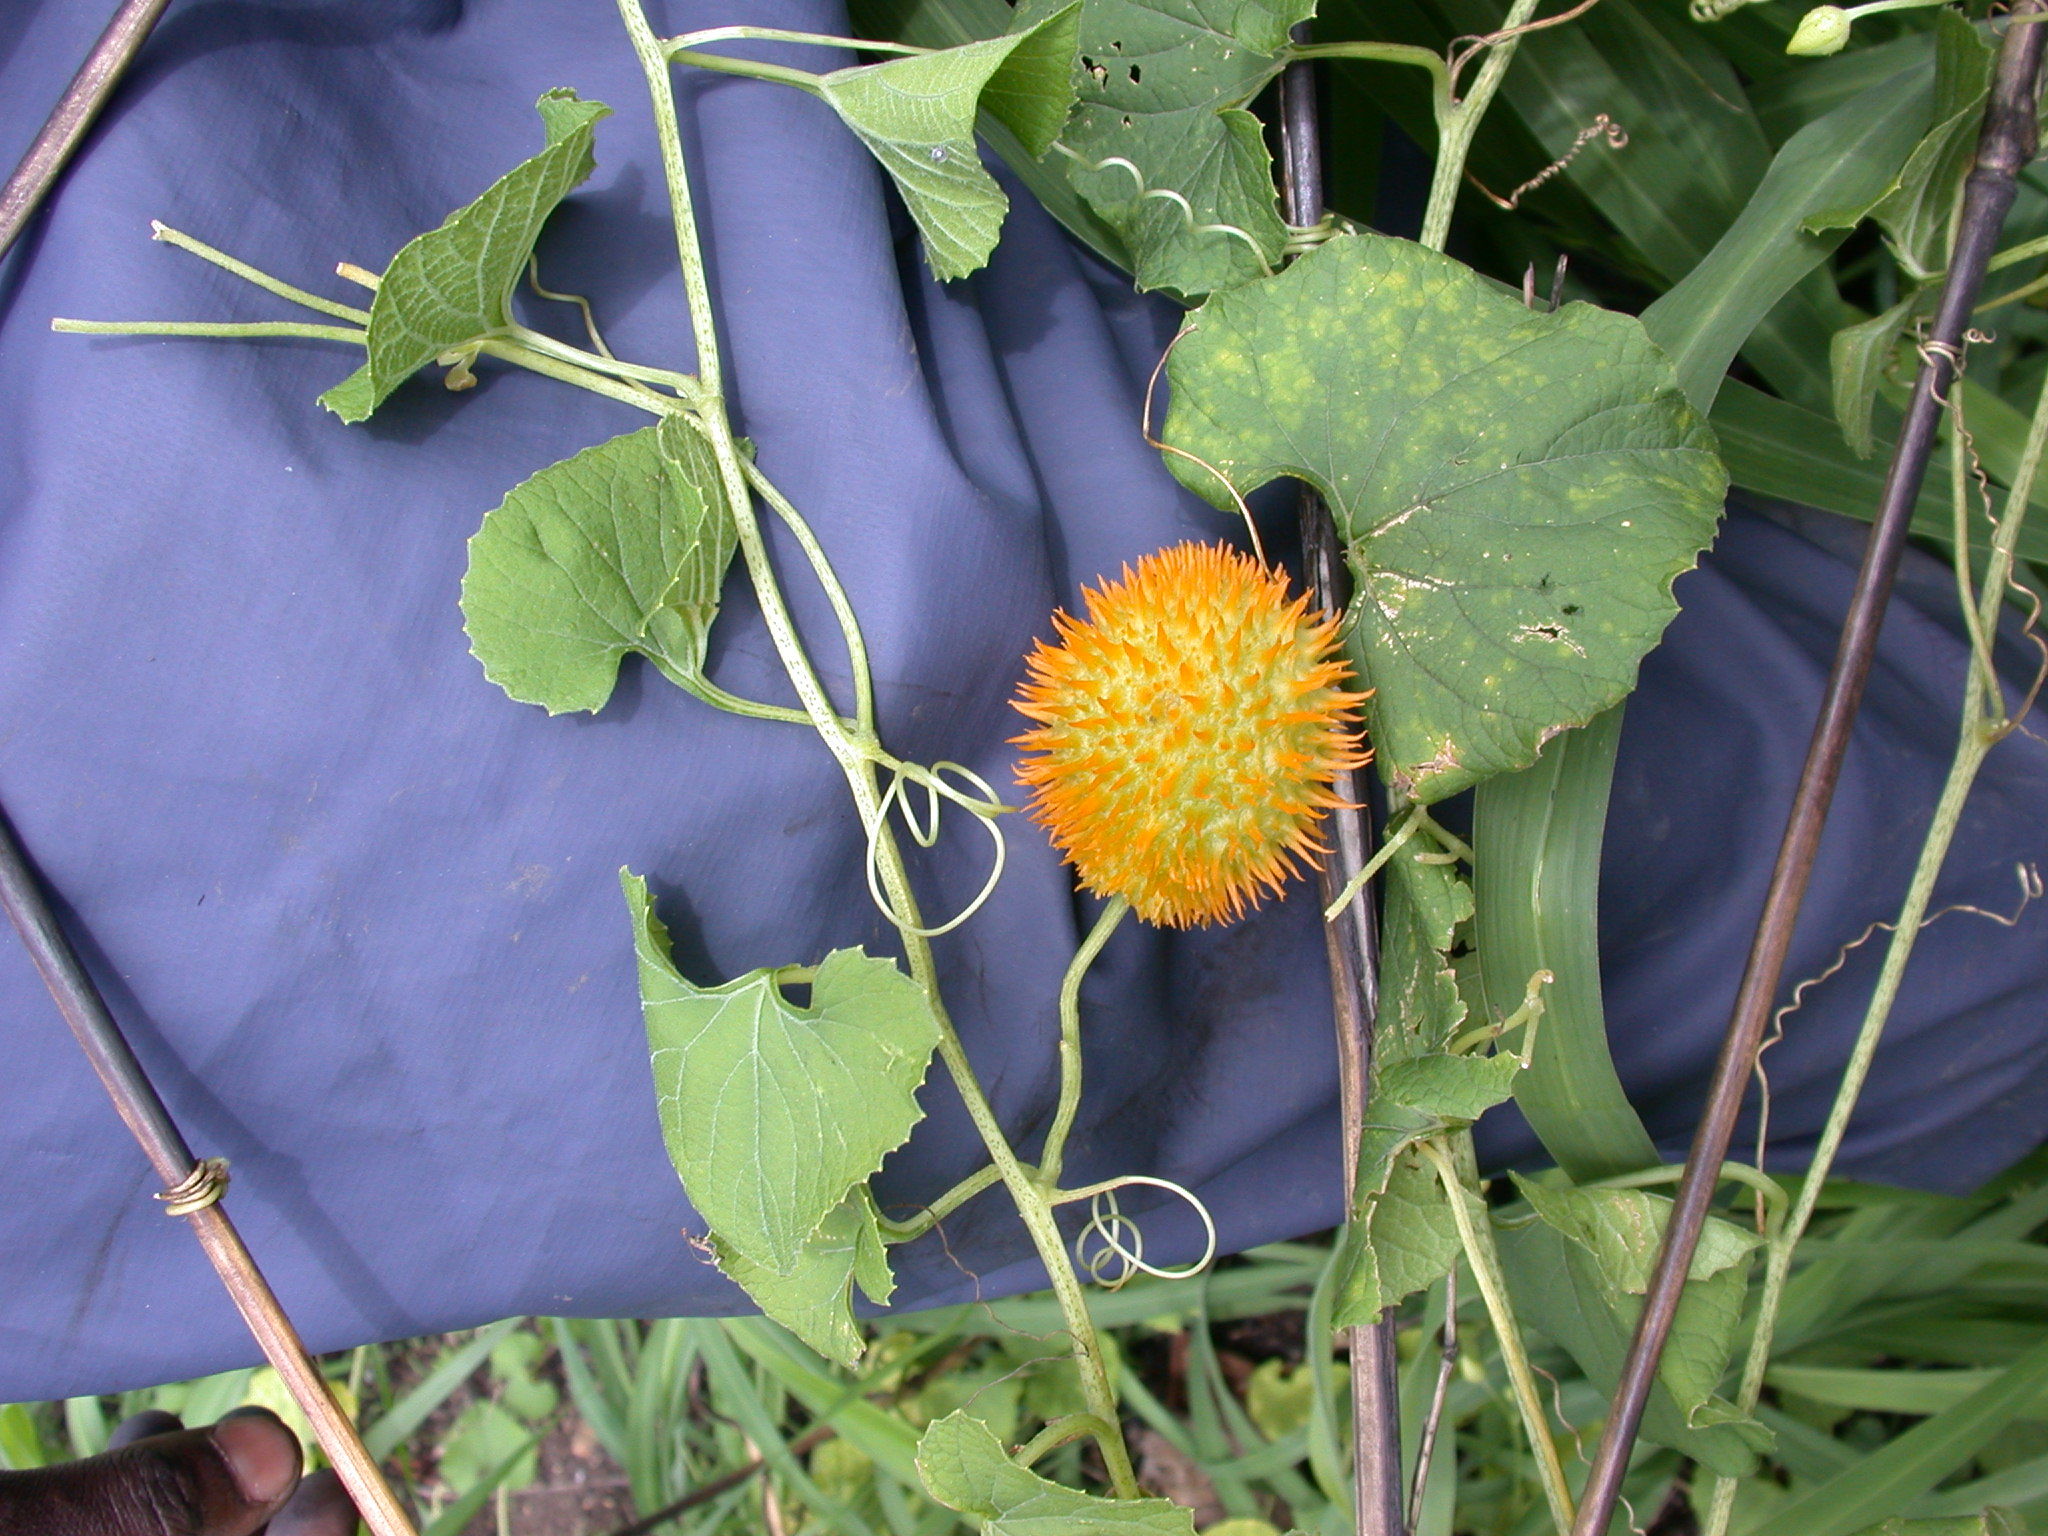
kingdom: Plantae
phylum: Tracheophyta
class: Magnoliopsida
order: Cucurbitales
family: Cucurbitaceae
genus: Momordica
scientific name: Momordica foetida
